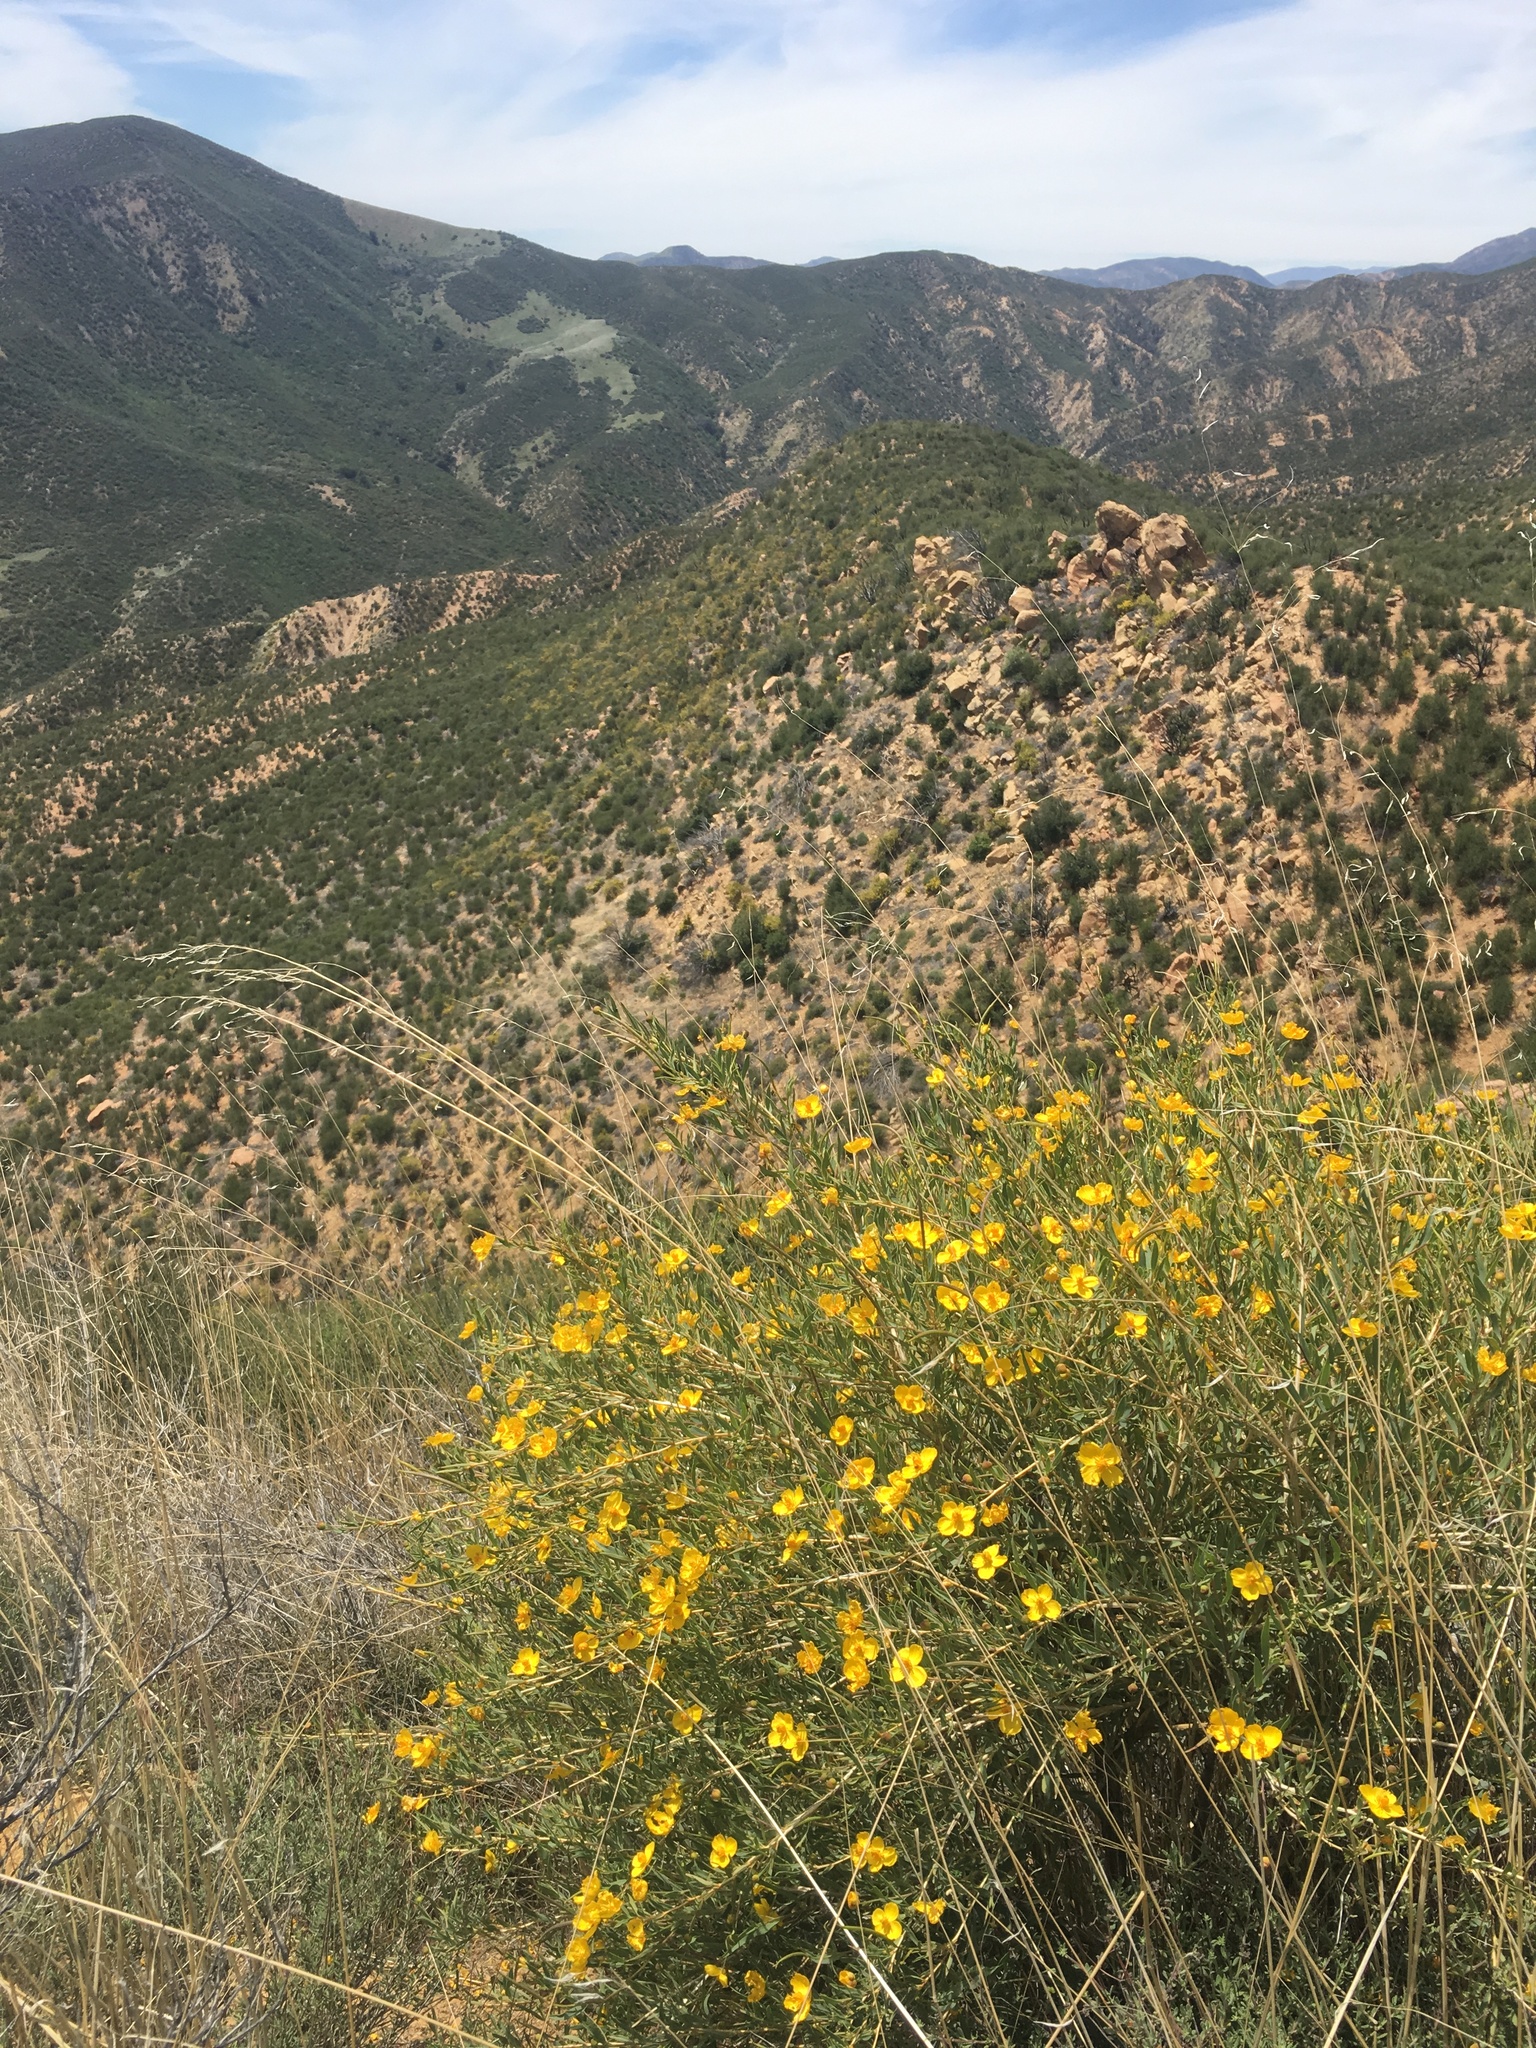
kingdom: Plantae
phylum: Tracheophyta
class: Magnoliopsida
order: Ranunculales
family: Papaveraceae
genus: Dendromecon
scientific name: Dendromecon rigida
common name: Tree poppy
